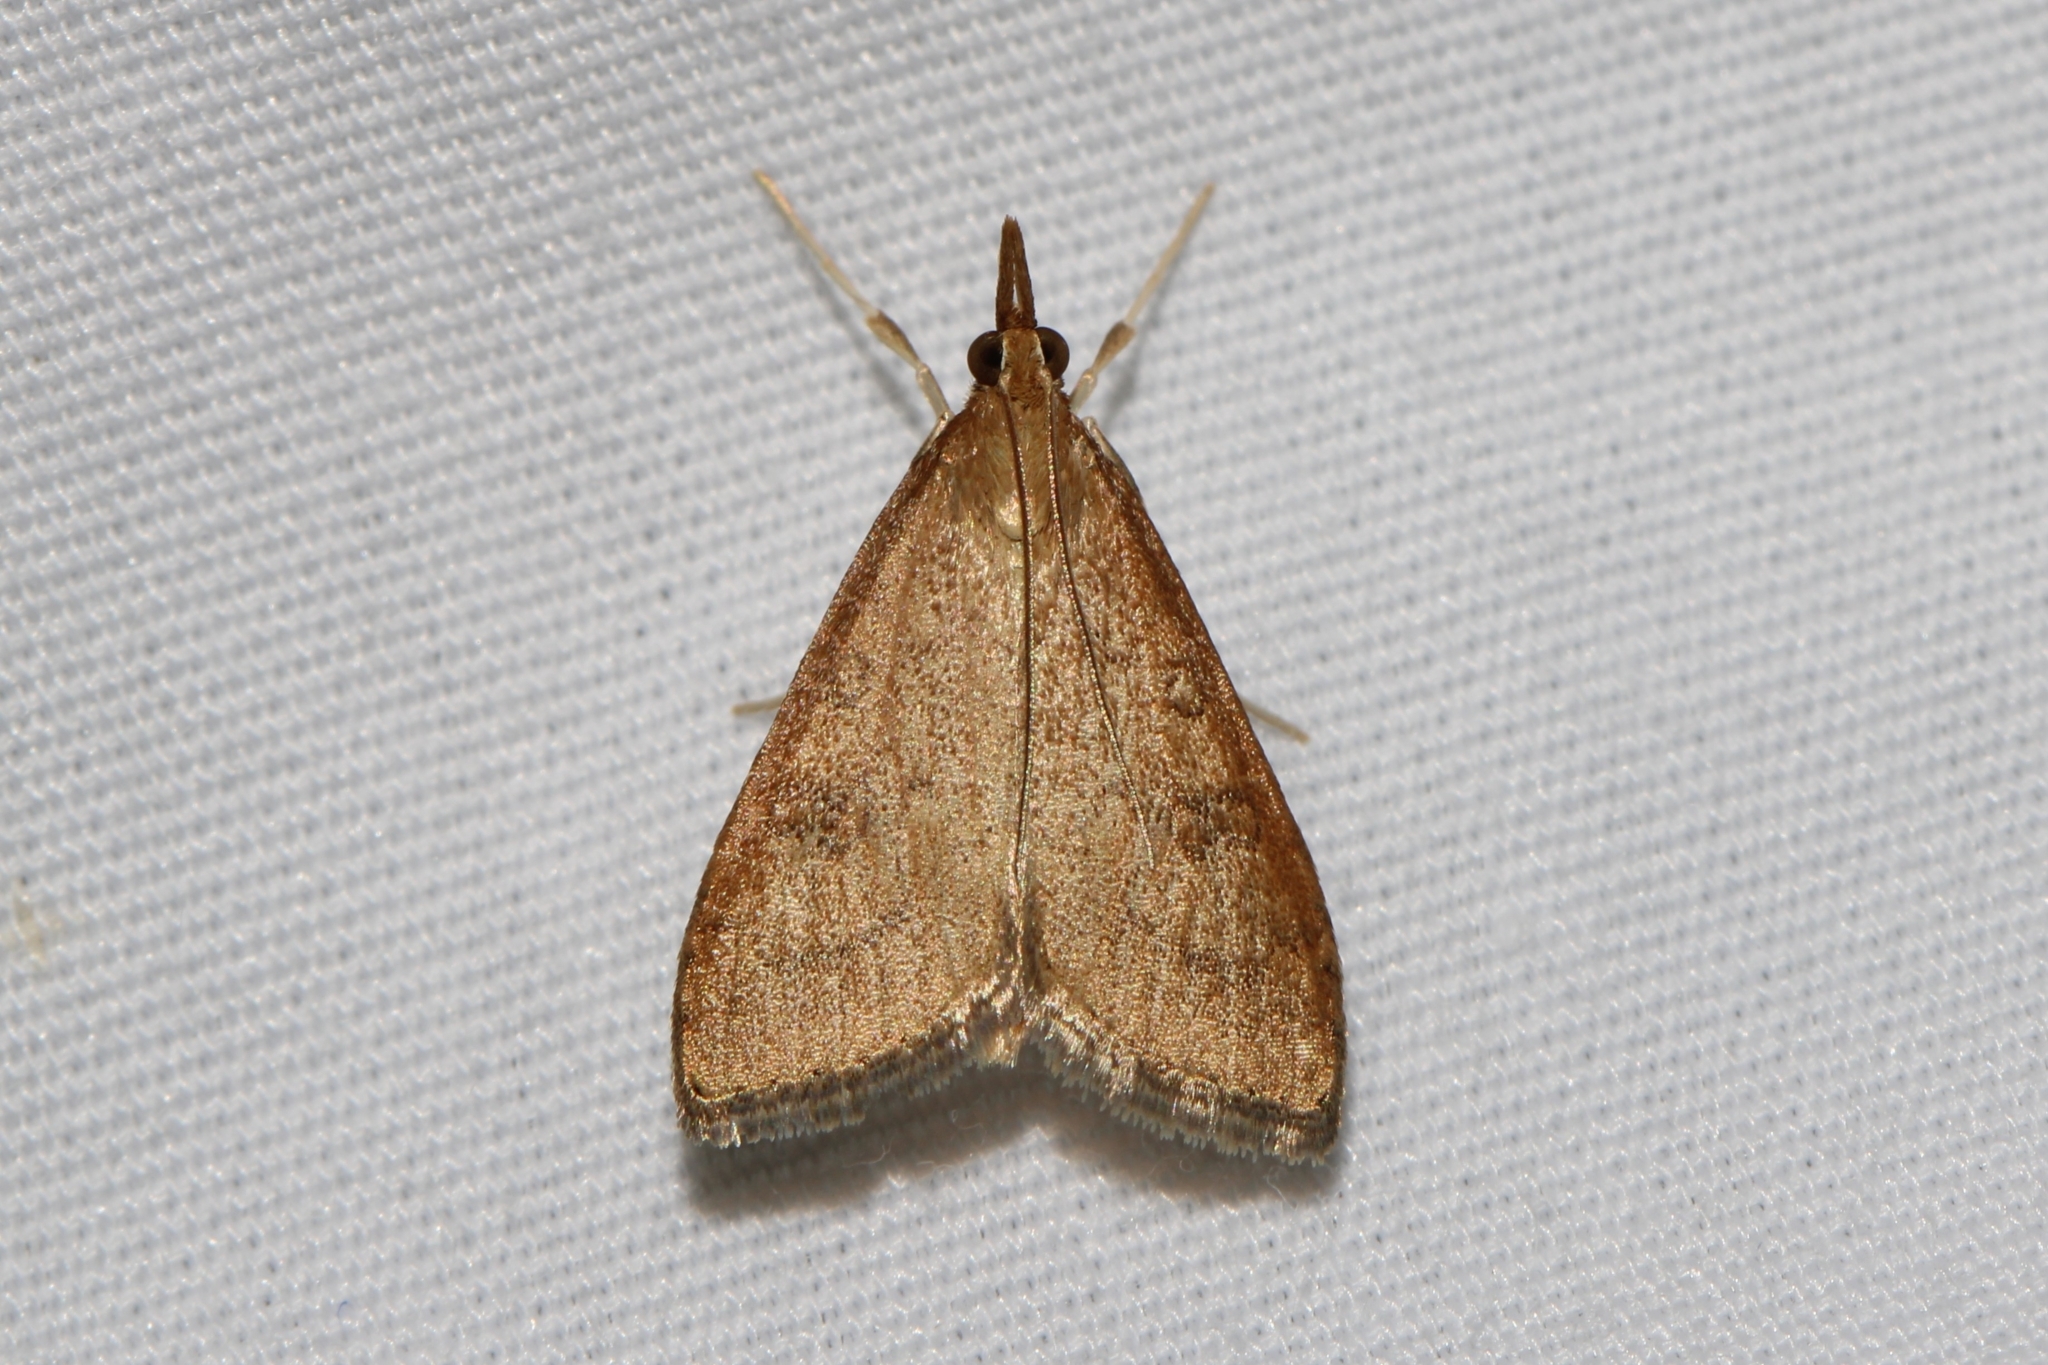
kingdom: Animalia
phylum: Arthropoda
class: Insecta
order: Lepidoptera
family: Crambidae
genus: Udea
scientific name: Udea rubigalis
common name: Celery leaftier moth
